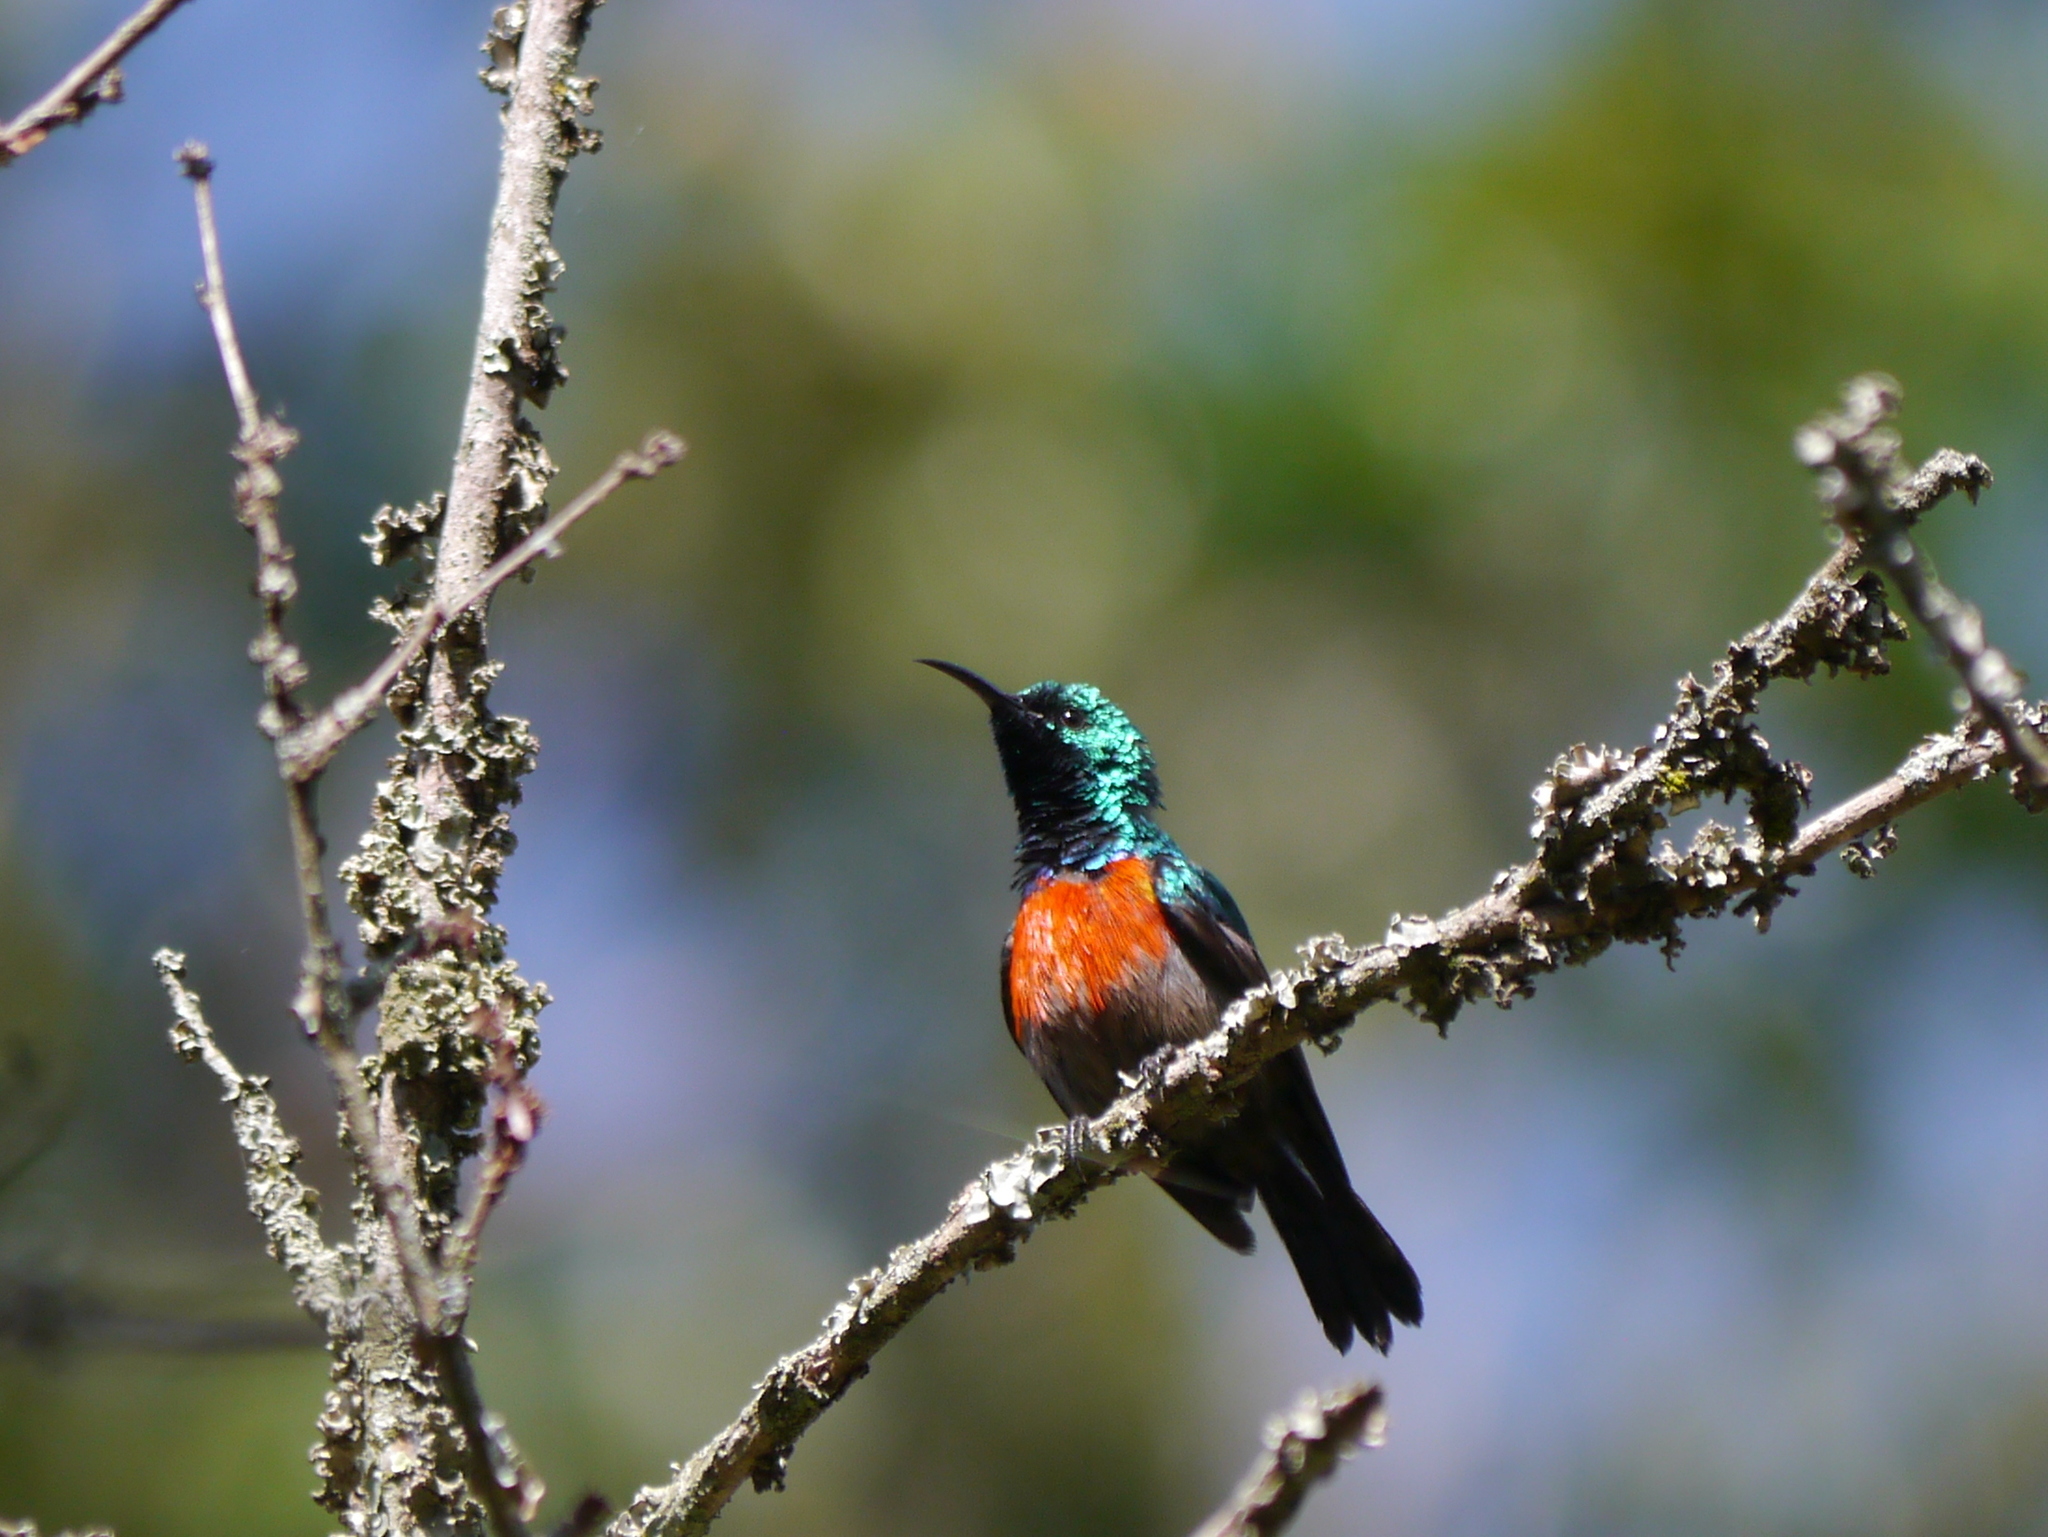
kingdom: Animalia
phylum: Chordata
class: Aves
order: Passeriformes
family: Nectariniidae
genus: Cinnyris
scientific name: Cinnyris chloropygius
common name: Olive-bellied sunbird
